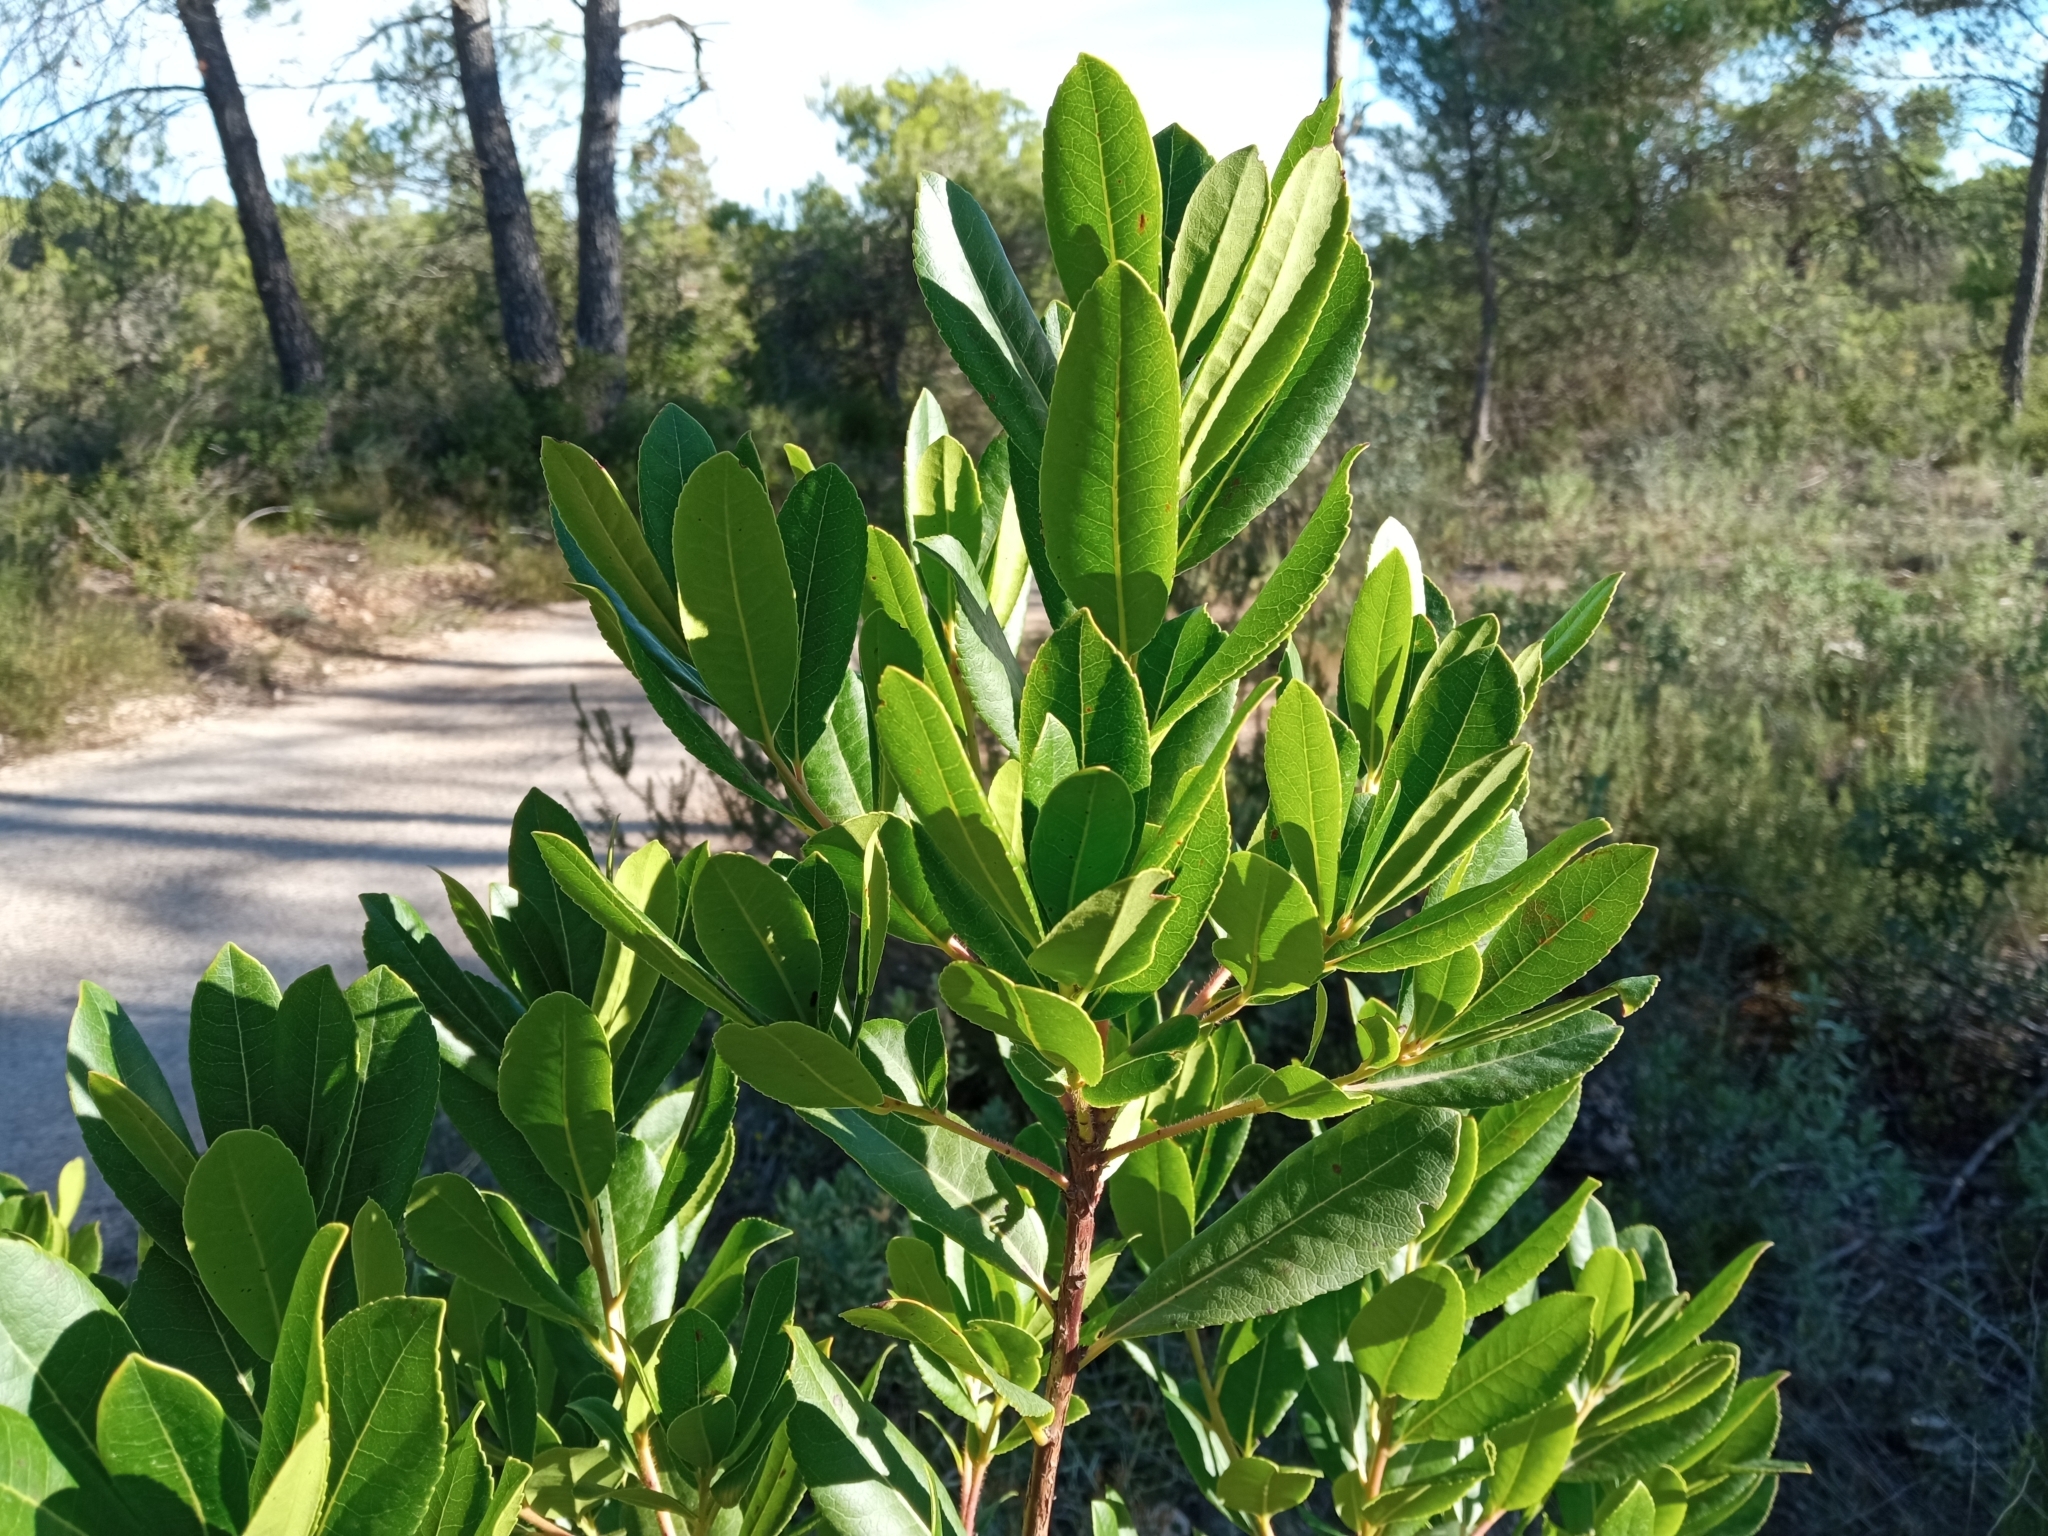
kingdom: Plantae
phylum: Tracheophyta
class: Magnoliopsida
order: Ericales
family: Ericaceae
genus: Arbutus
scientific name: Arbutus unedo
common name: Strawberry-tree
